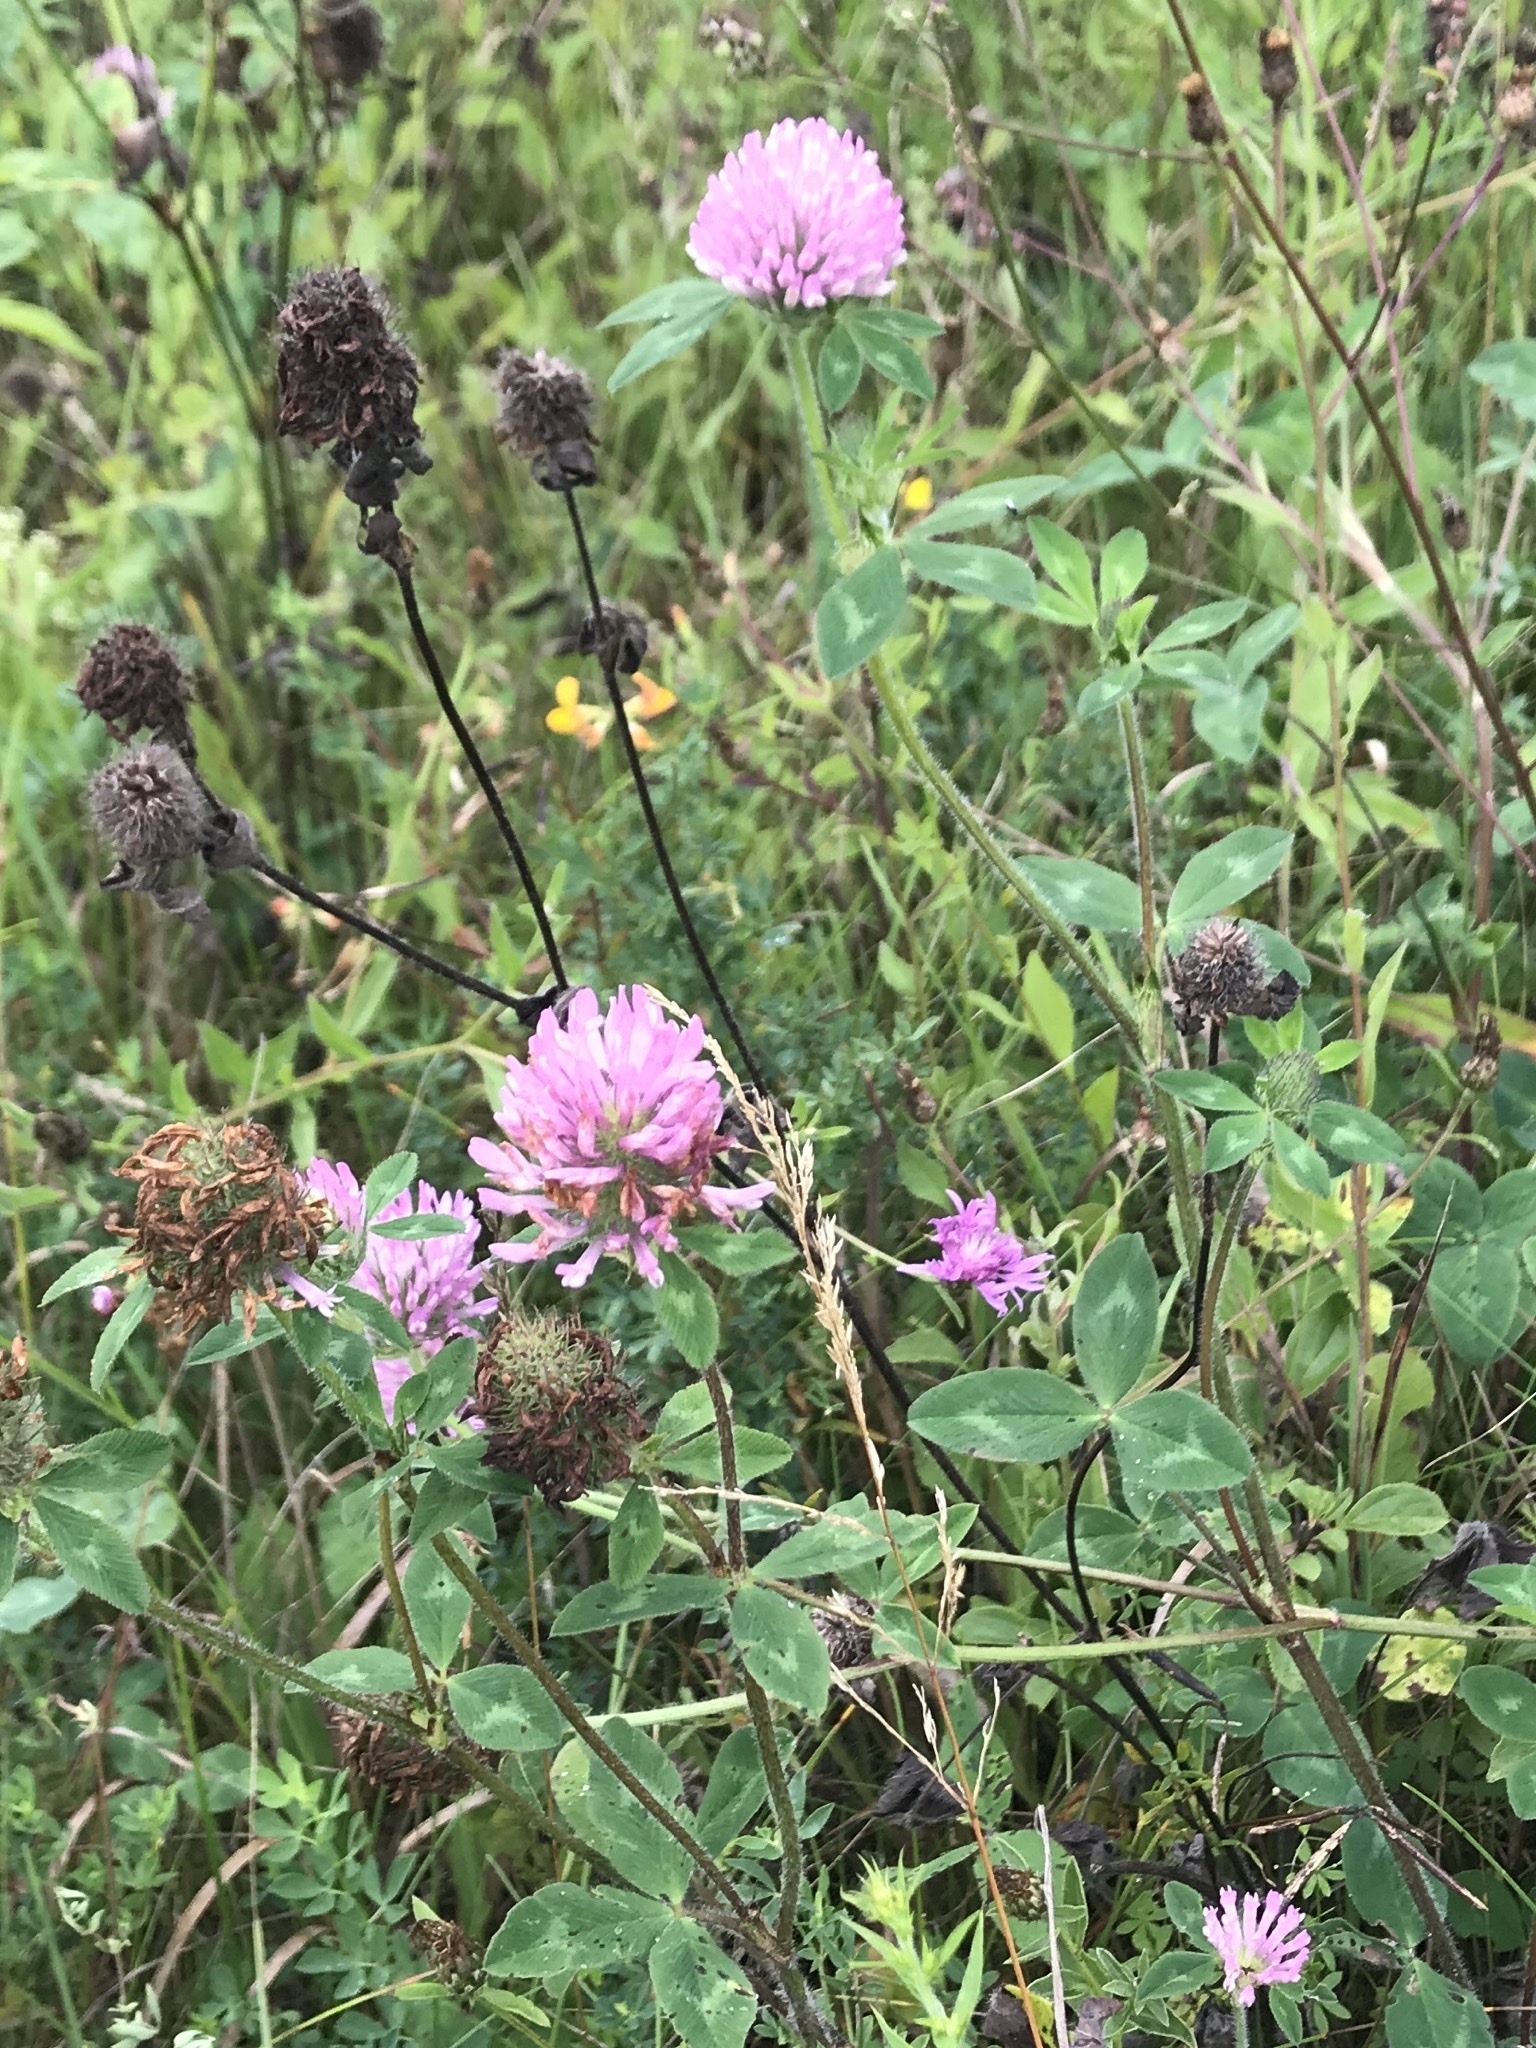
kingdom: Plantae
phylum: Tracheophyta
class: Magnoliopsida
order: Fabales
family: Fabaceae
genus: Trifolium
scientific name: Trifolium pratense
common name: Red clover
